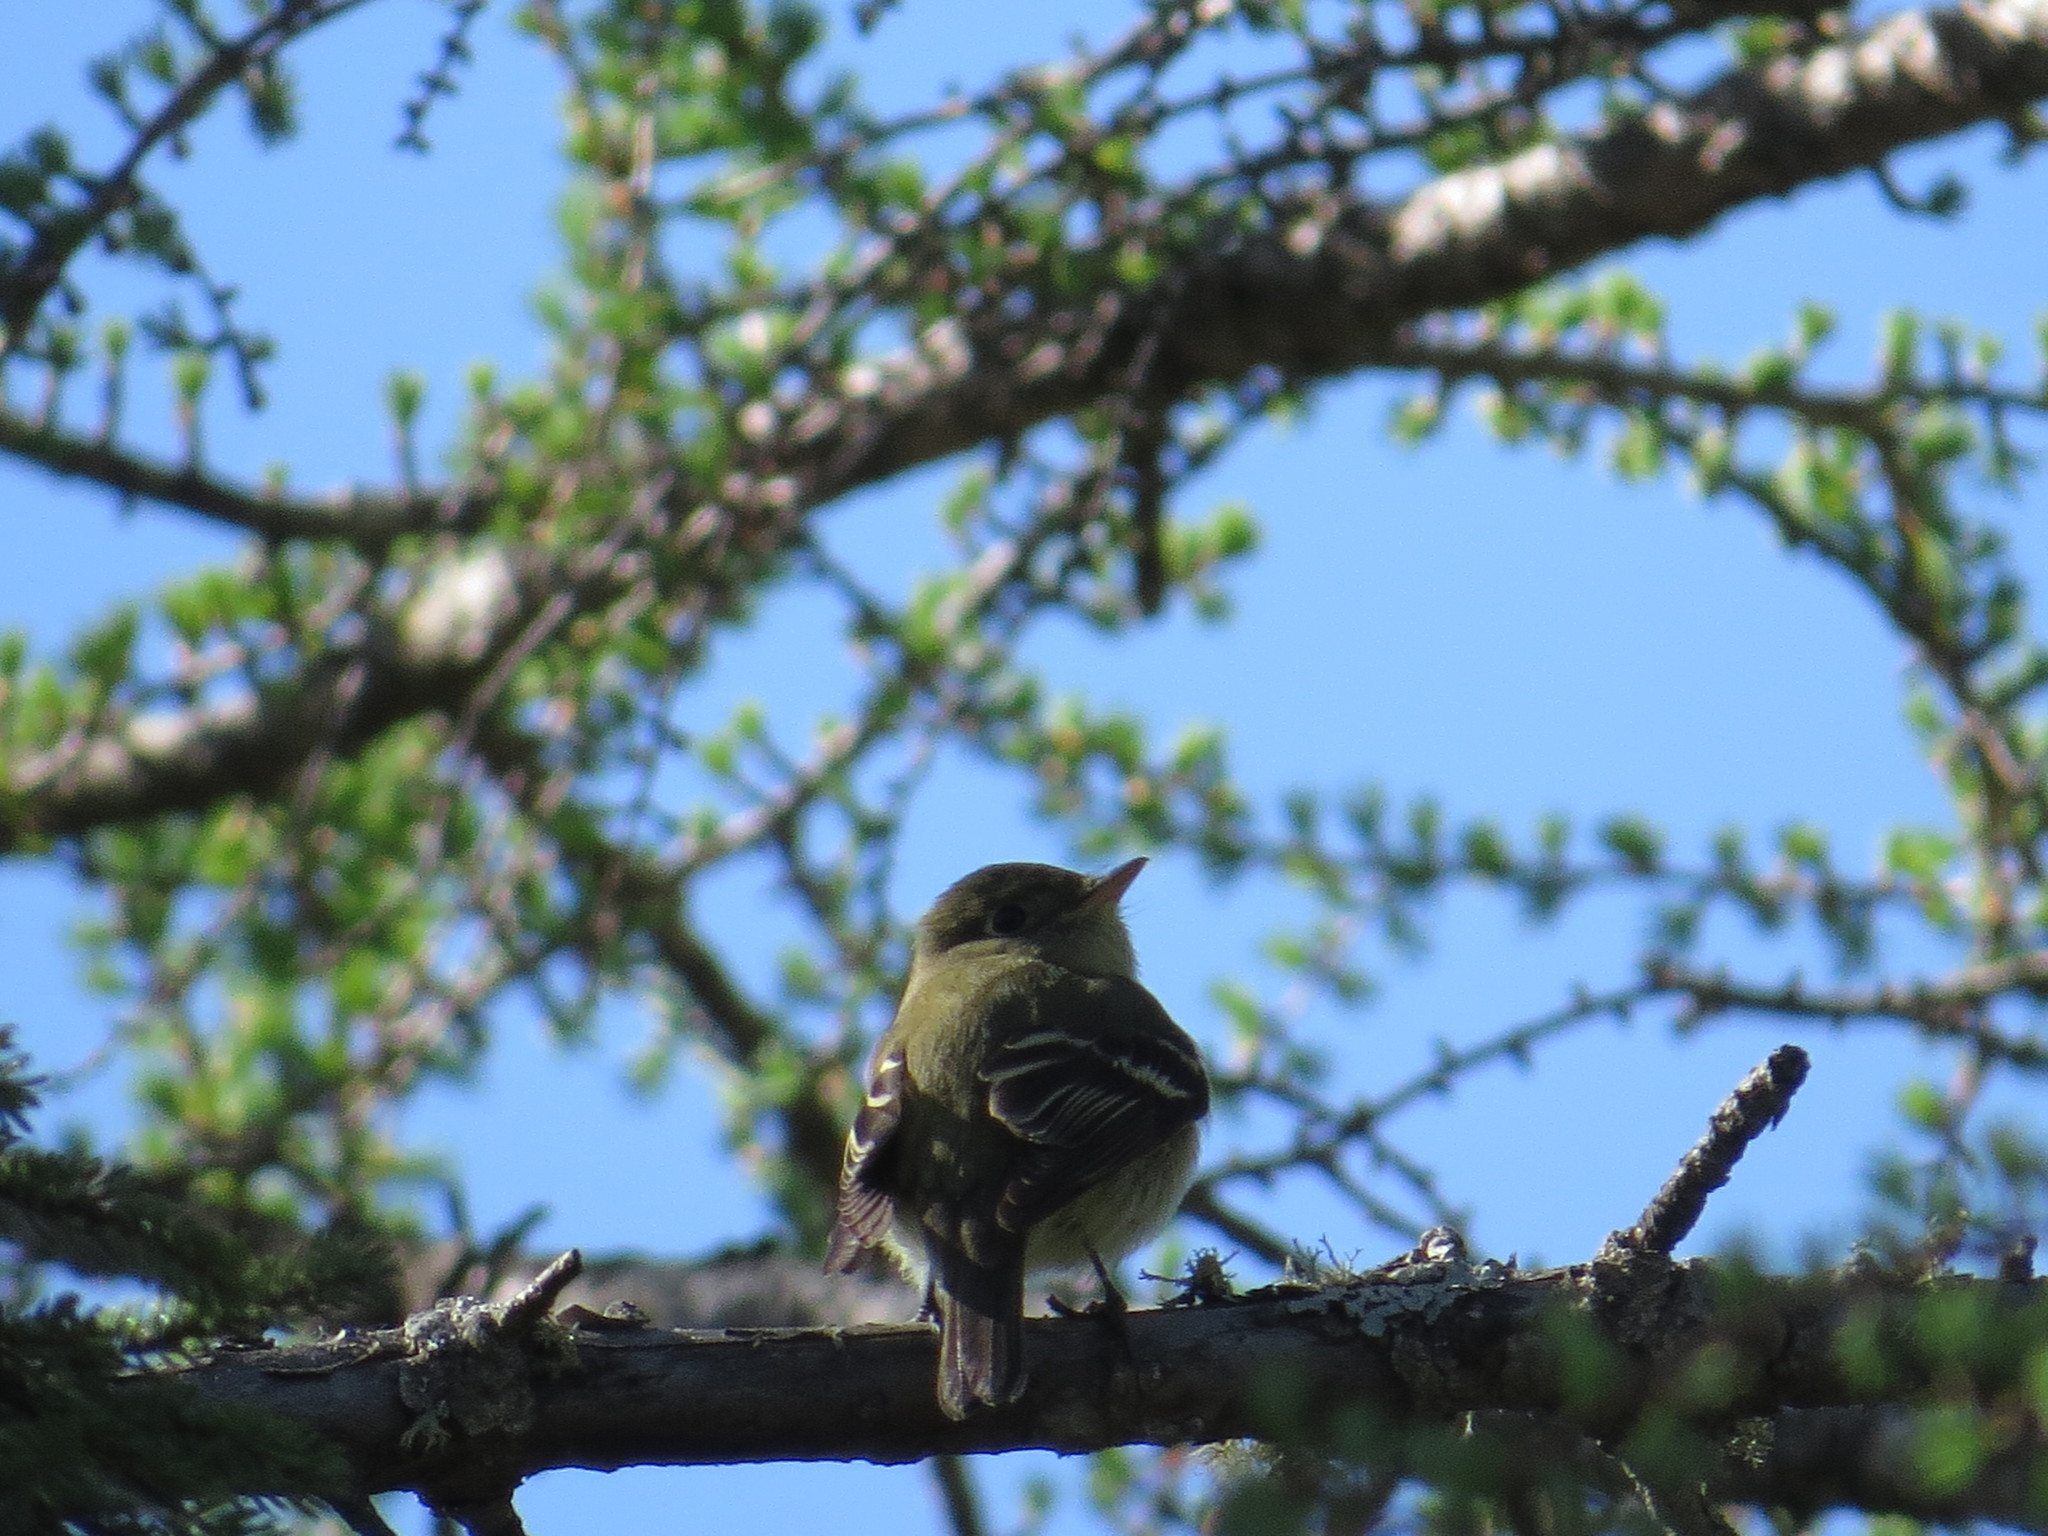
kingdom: Animalia
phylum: Chordata
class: Aves
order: Passeriformes
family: Tyrannidae
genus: Empidonax
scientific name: Empidonax flaviventris
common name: Yellow-bellied flycatcher
